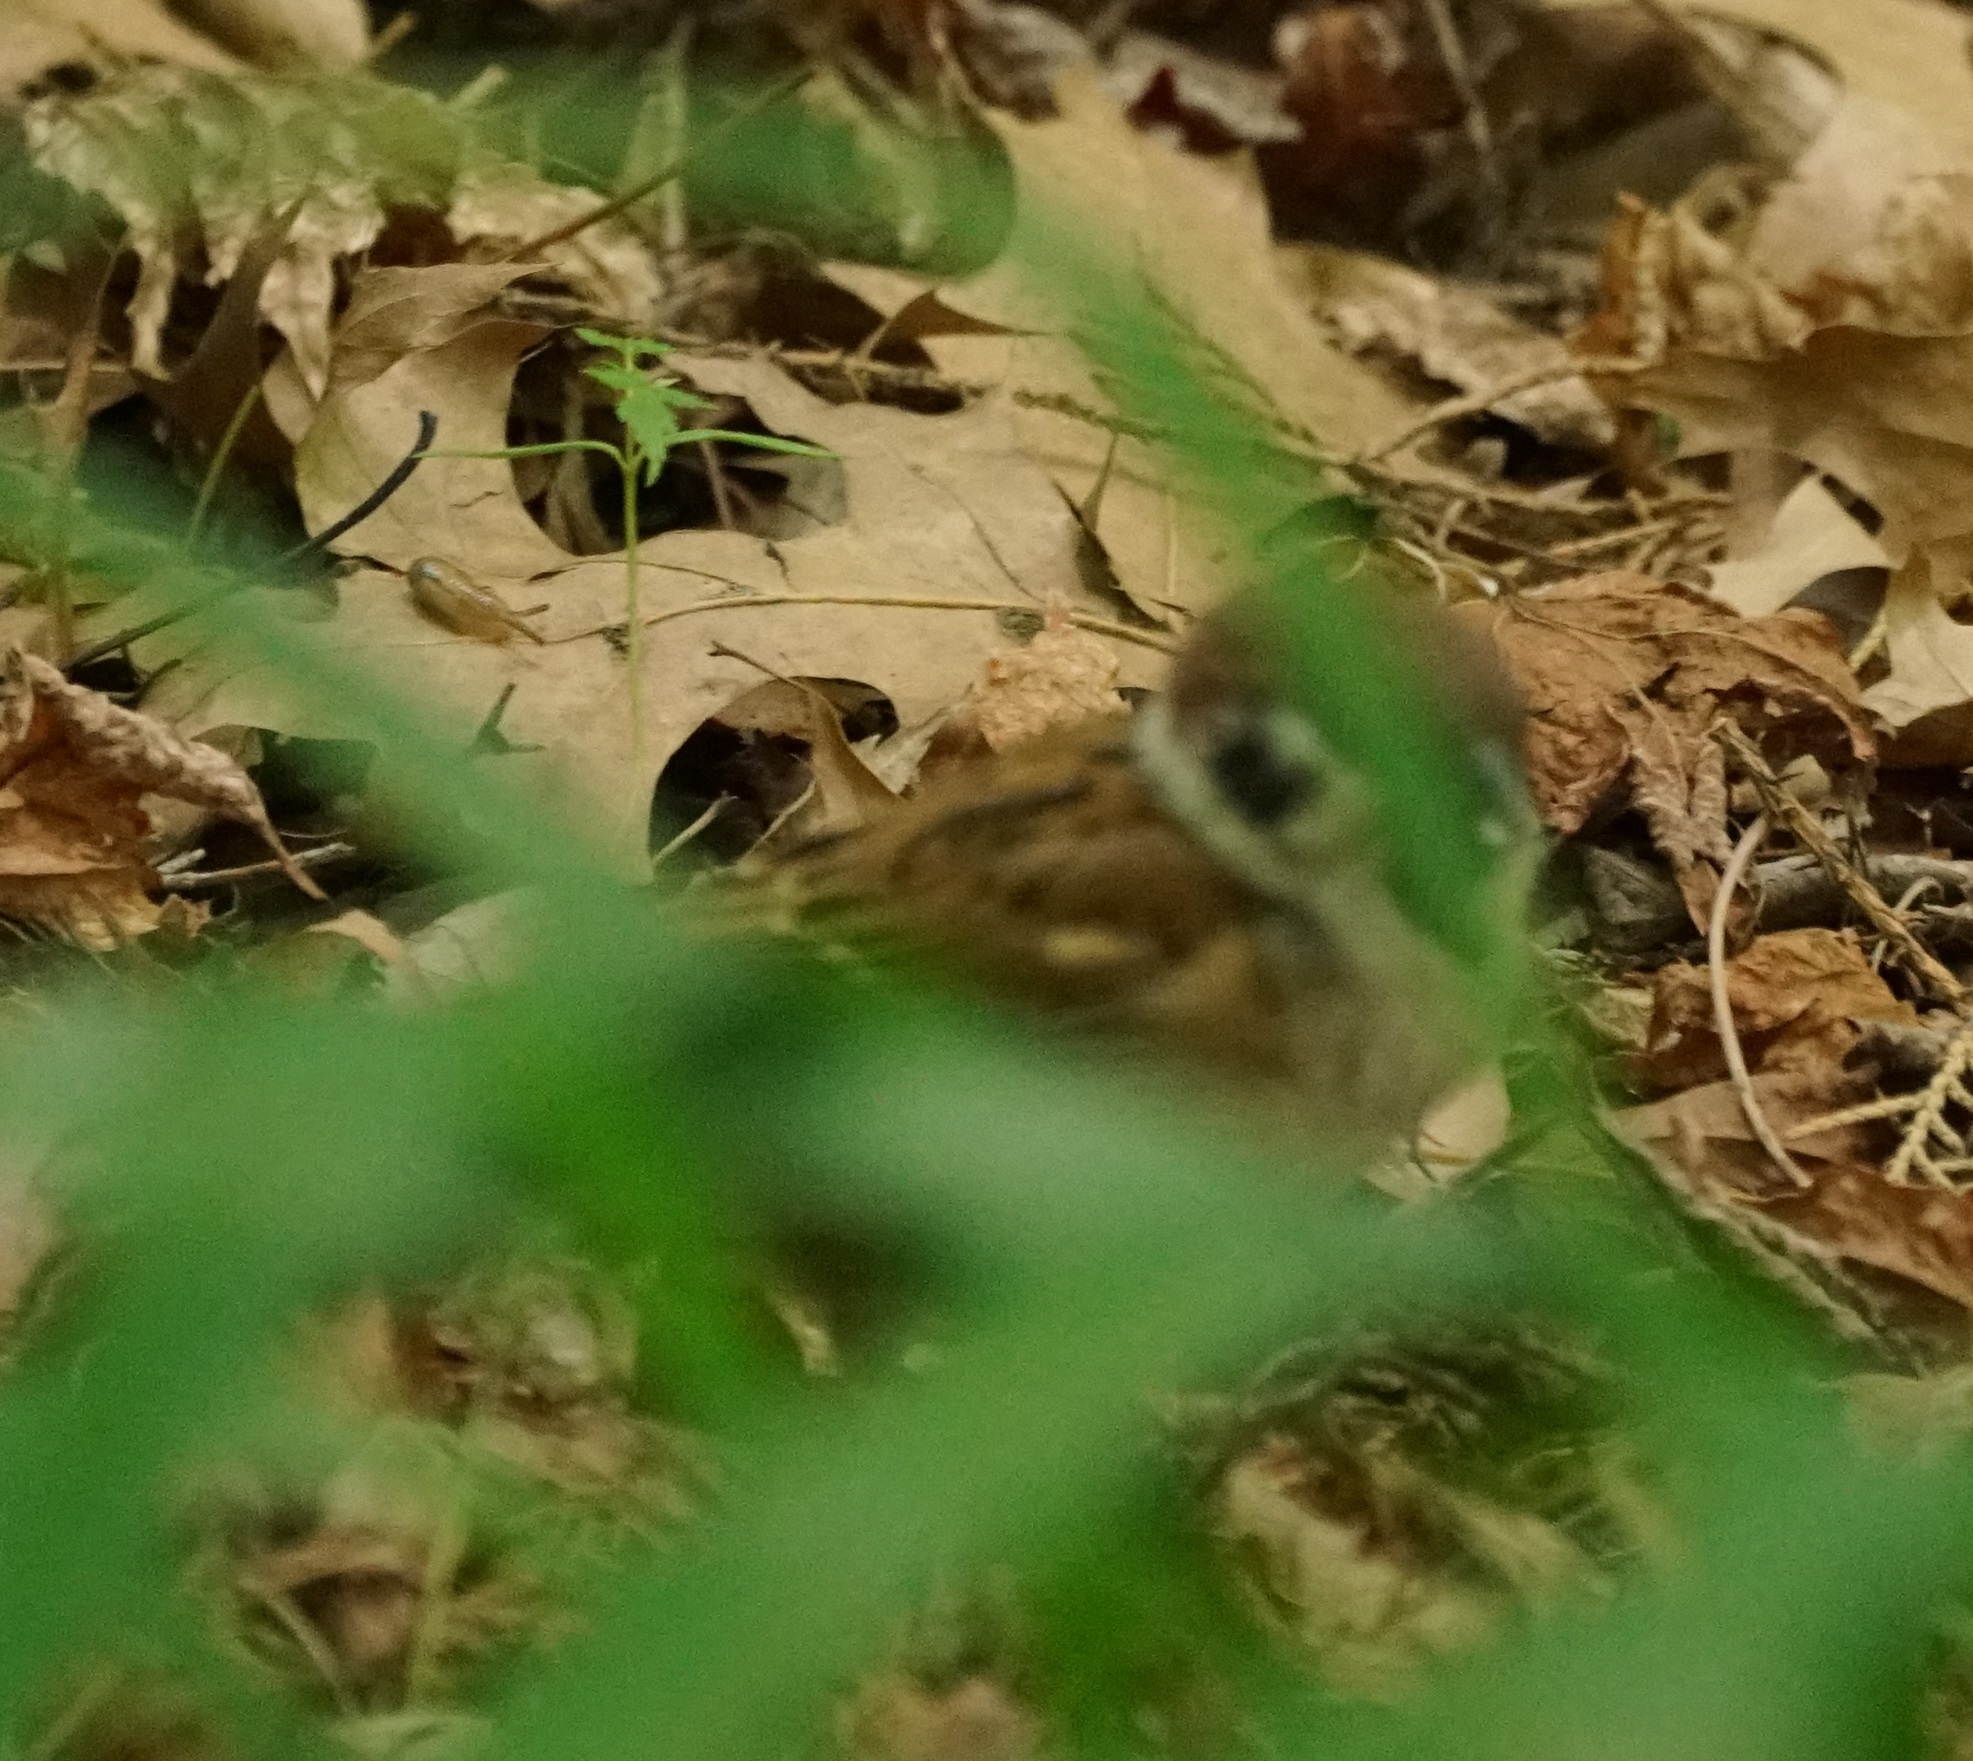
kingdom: Animalia
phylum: Chordata
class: Aves
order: Passeriformes
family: Passeridae
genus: Passer
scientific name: Passer montanus
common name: Eurasian tree sparrow
